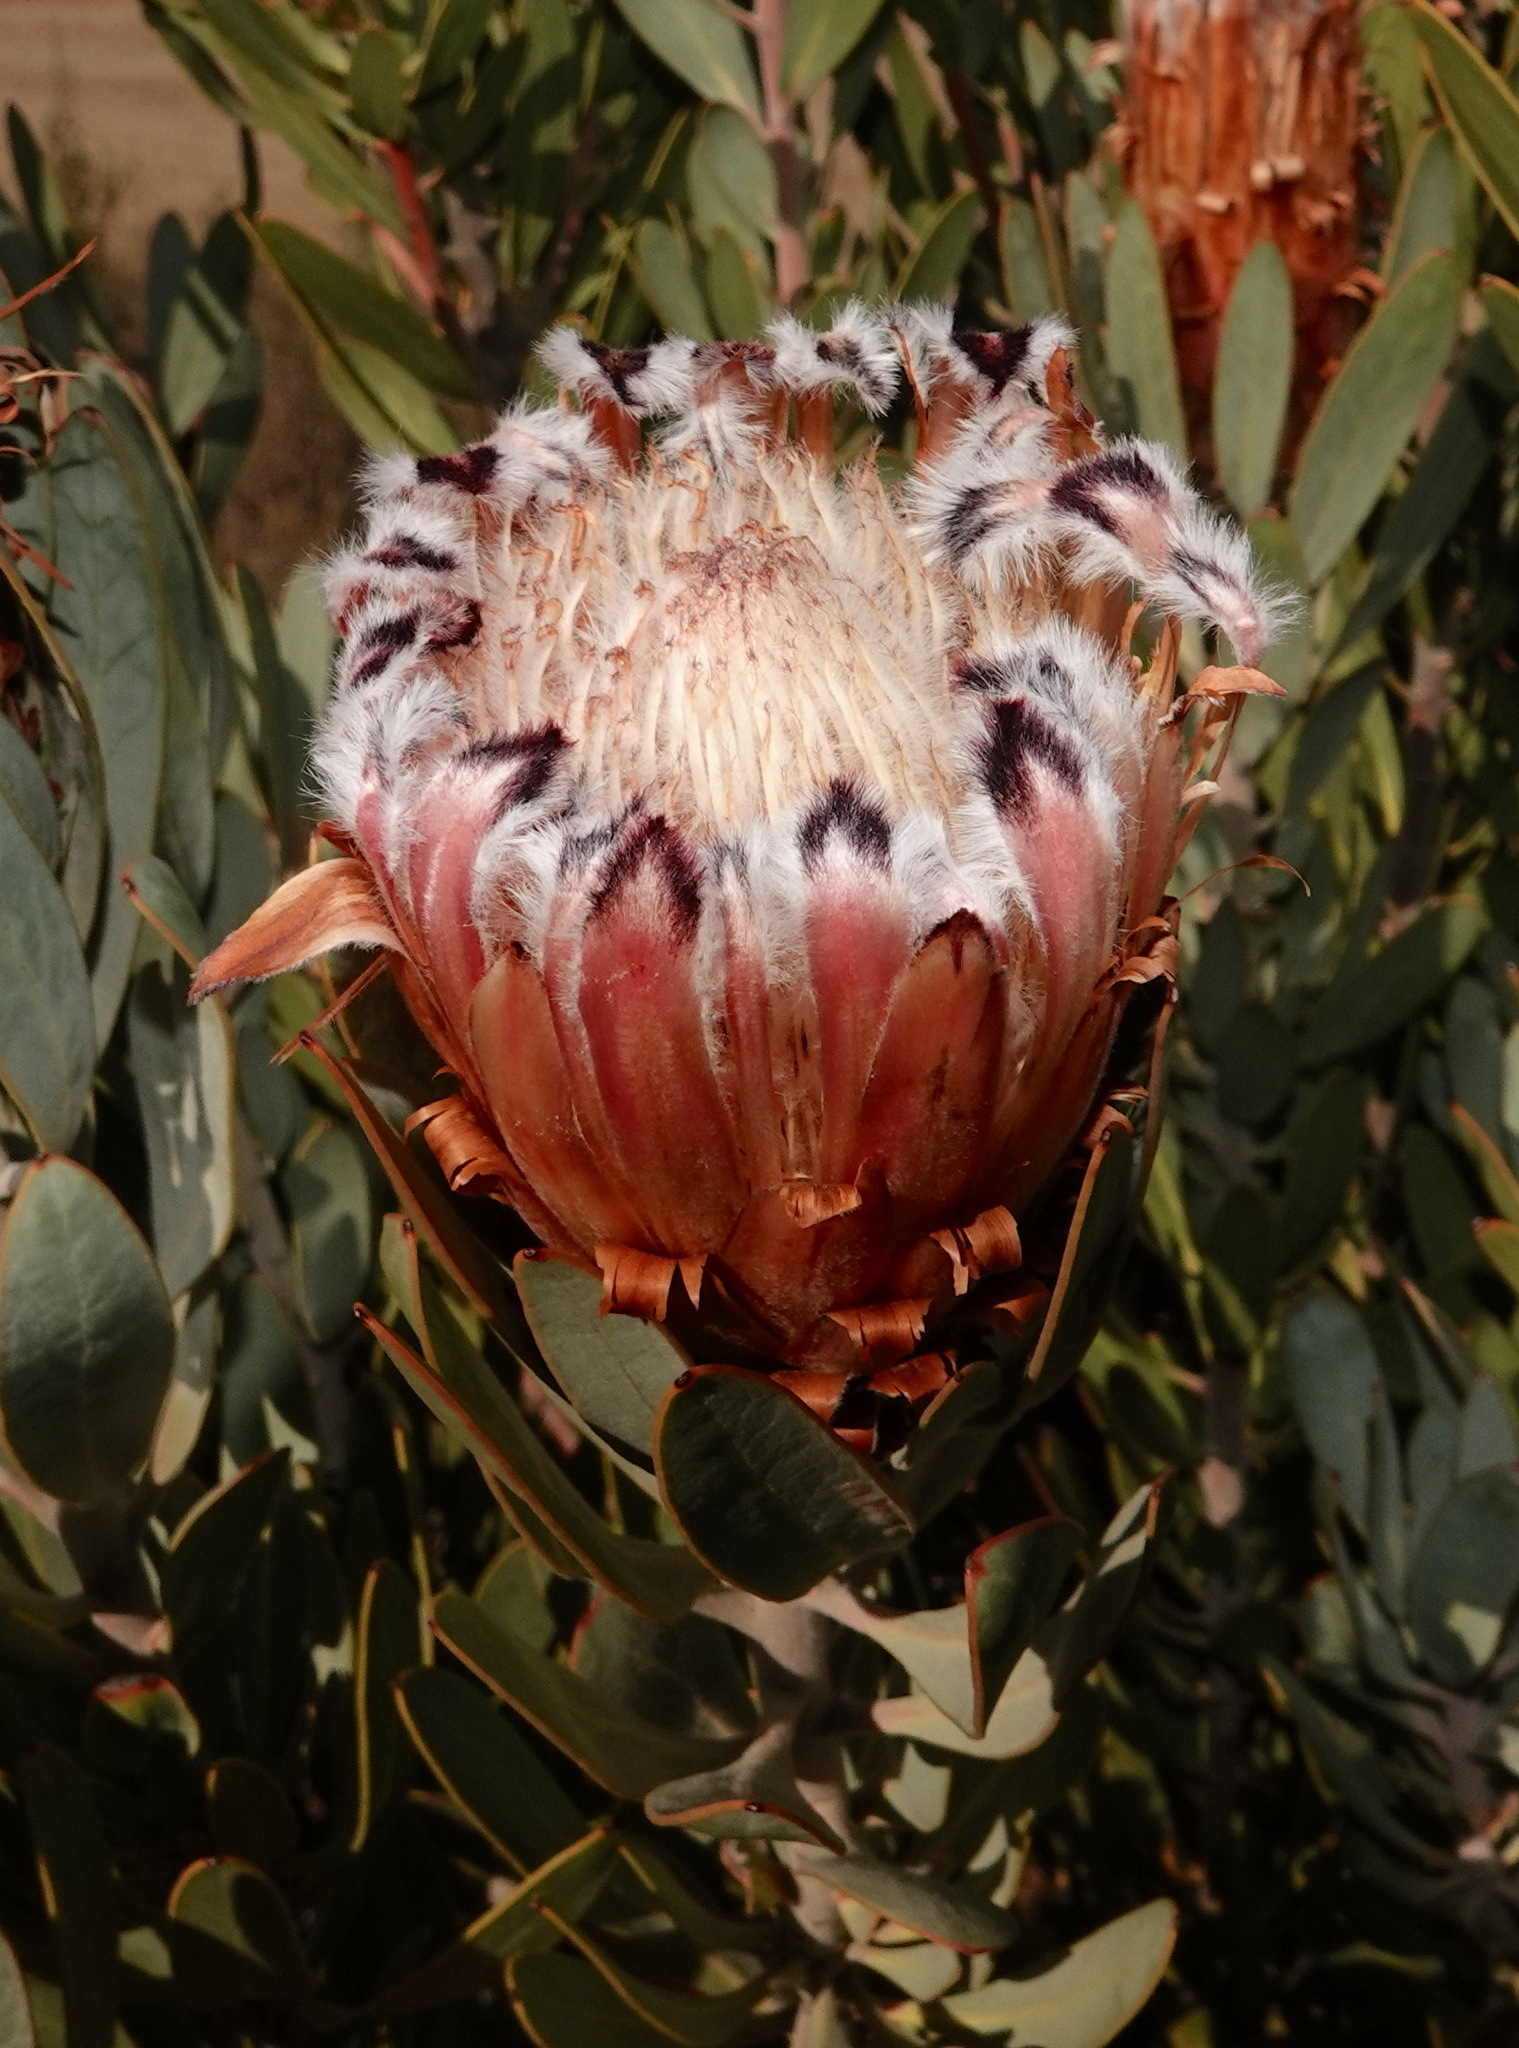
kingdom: Plantae
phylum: Tracheophyta
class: Magnoliopsida
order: Proteales
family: Proteaceae
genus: Protea
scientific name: Protea laurifolia
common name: Grey-leaf sugarbsh
